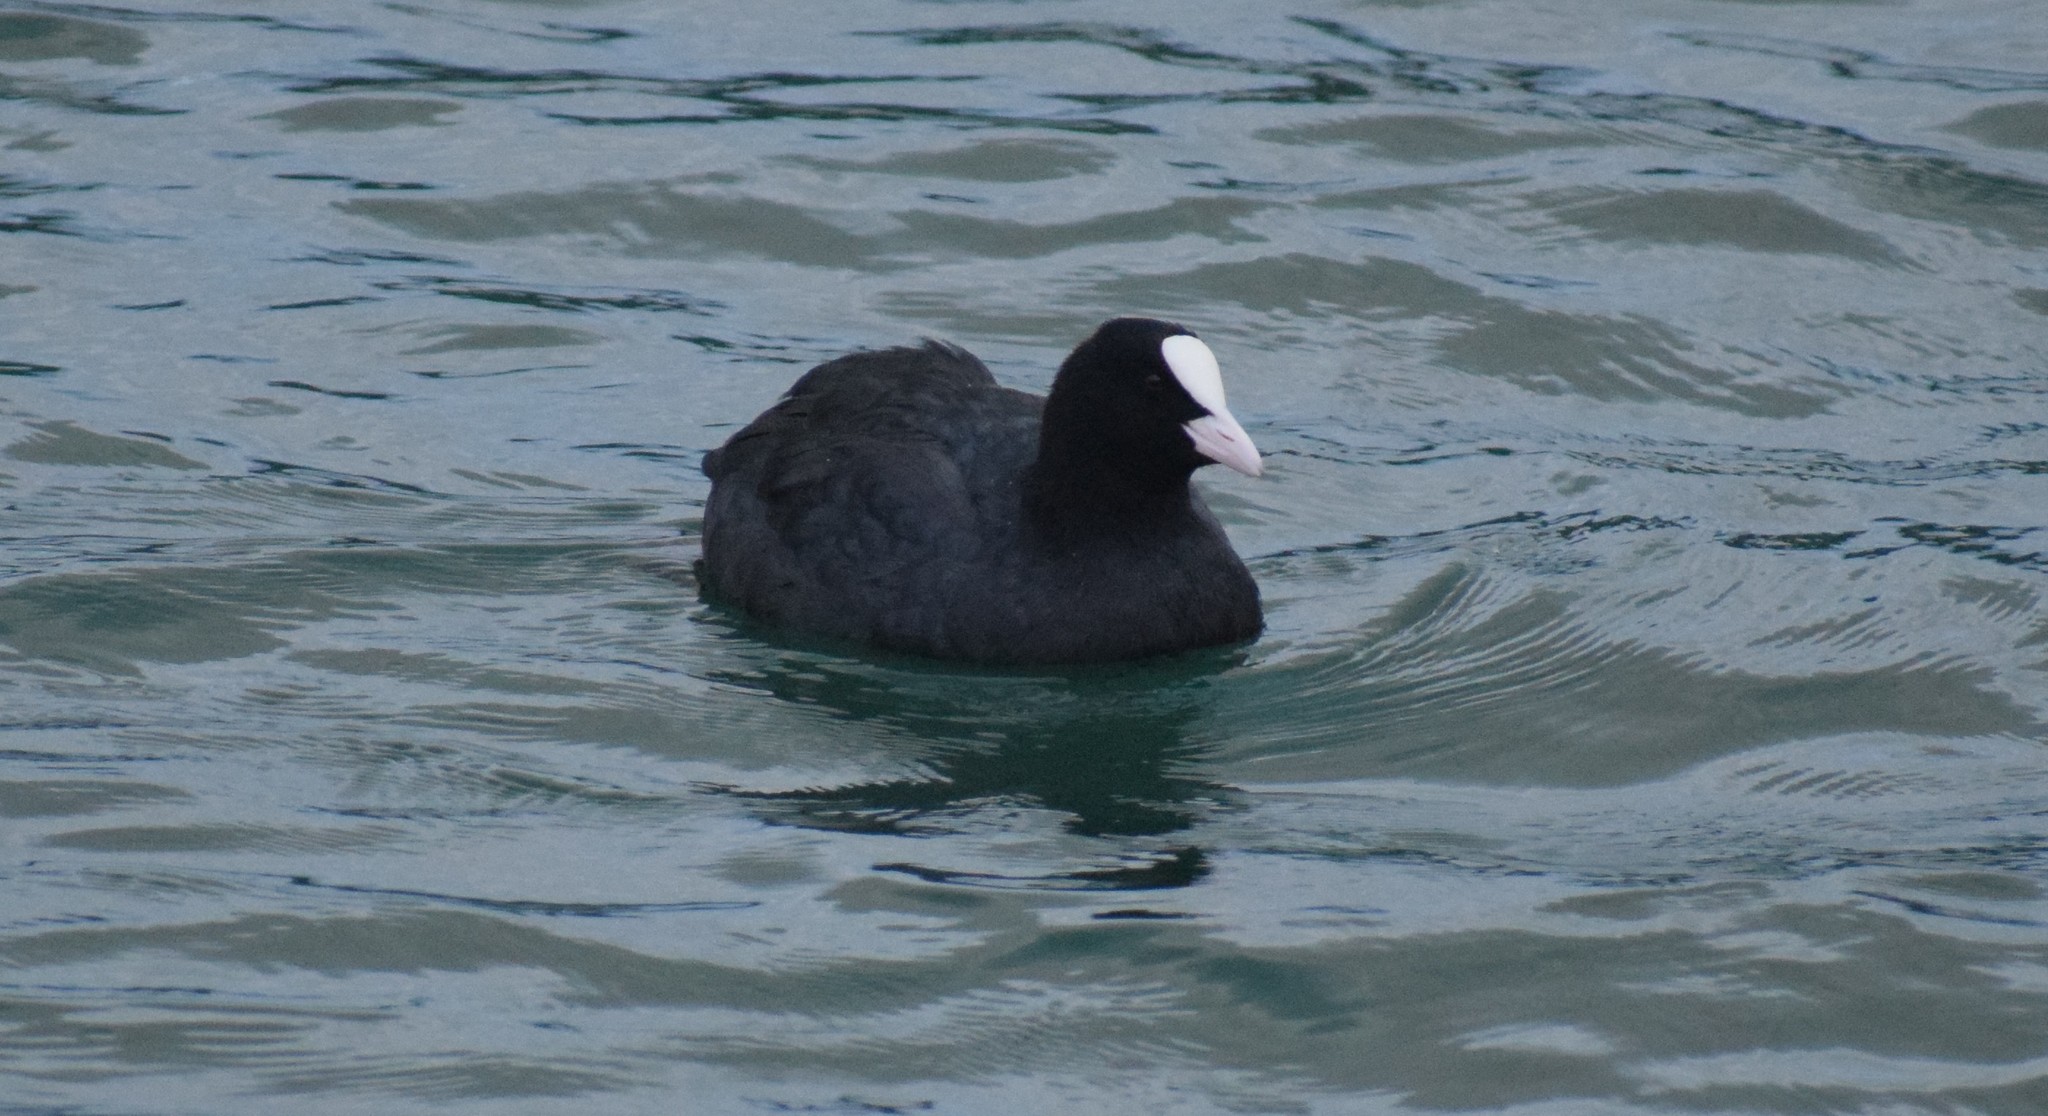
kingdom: Animalia
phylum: Chordata
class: Aves
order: Gruiformes
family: Rallidae
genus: Fulica
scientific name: Fulica atra
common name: Eurasian coot
